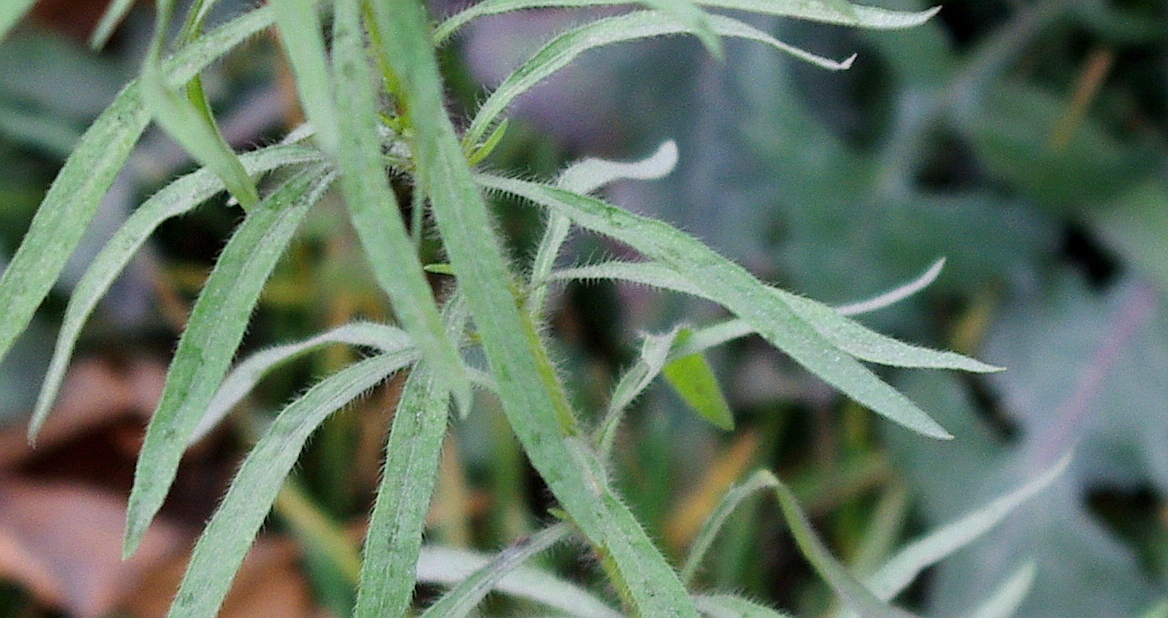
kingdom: Plantae
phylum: Tracheophyta
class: Magnoliopsida
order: Asterales
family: Asteraceae
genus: Erigeron
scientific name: Erigeron canadensis
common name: Canadian fleabane
